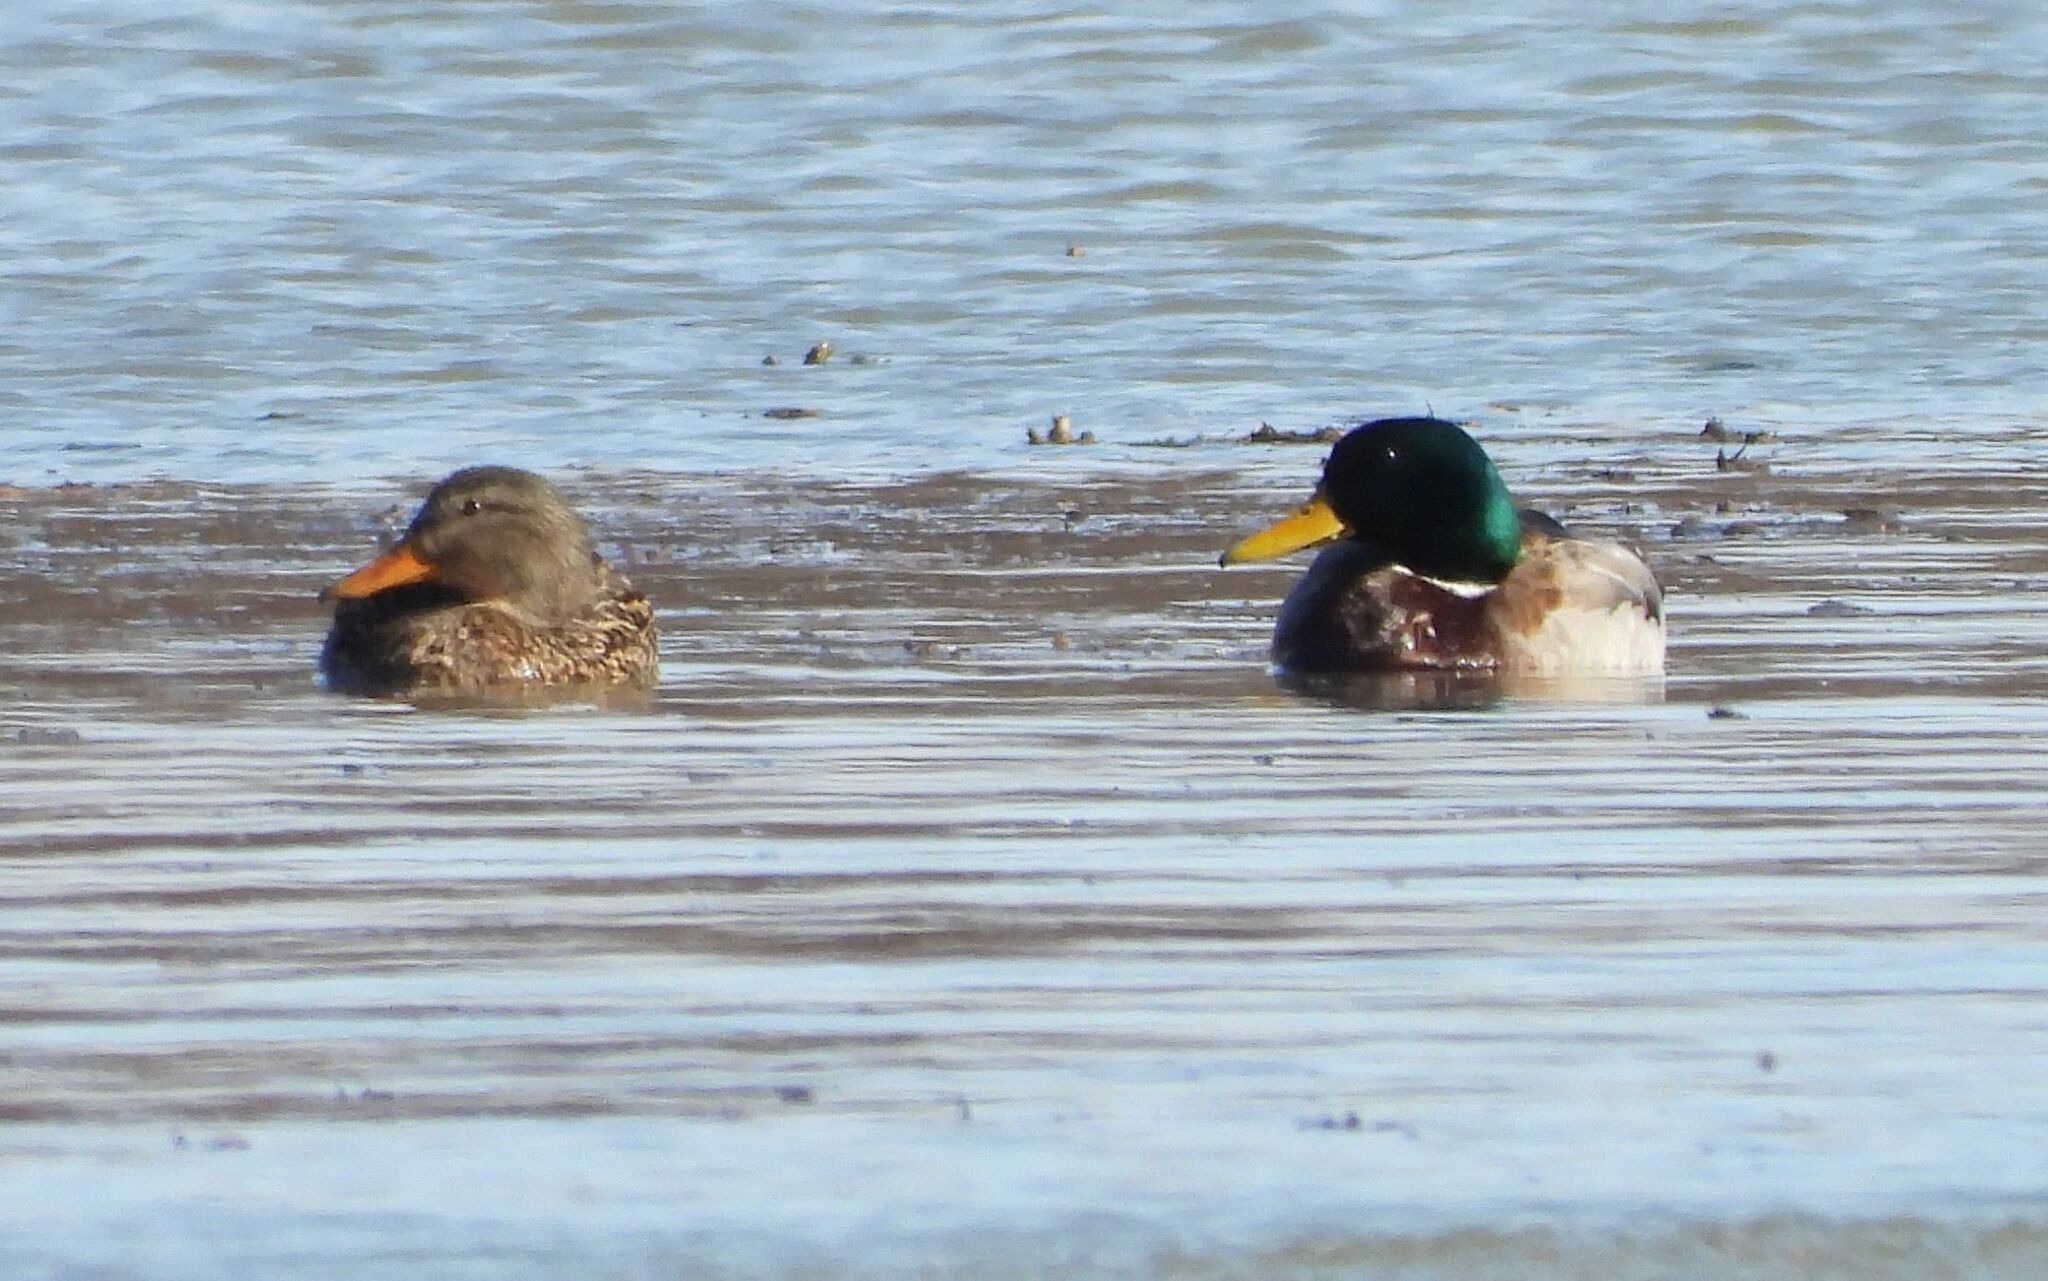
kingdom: Animalia
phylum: Chordata
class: Aves
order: Anseriformes
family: Anatidae
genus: Anas
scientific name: Anas platyrhynchos
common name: Mallard
